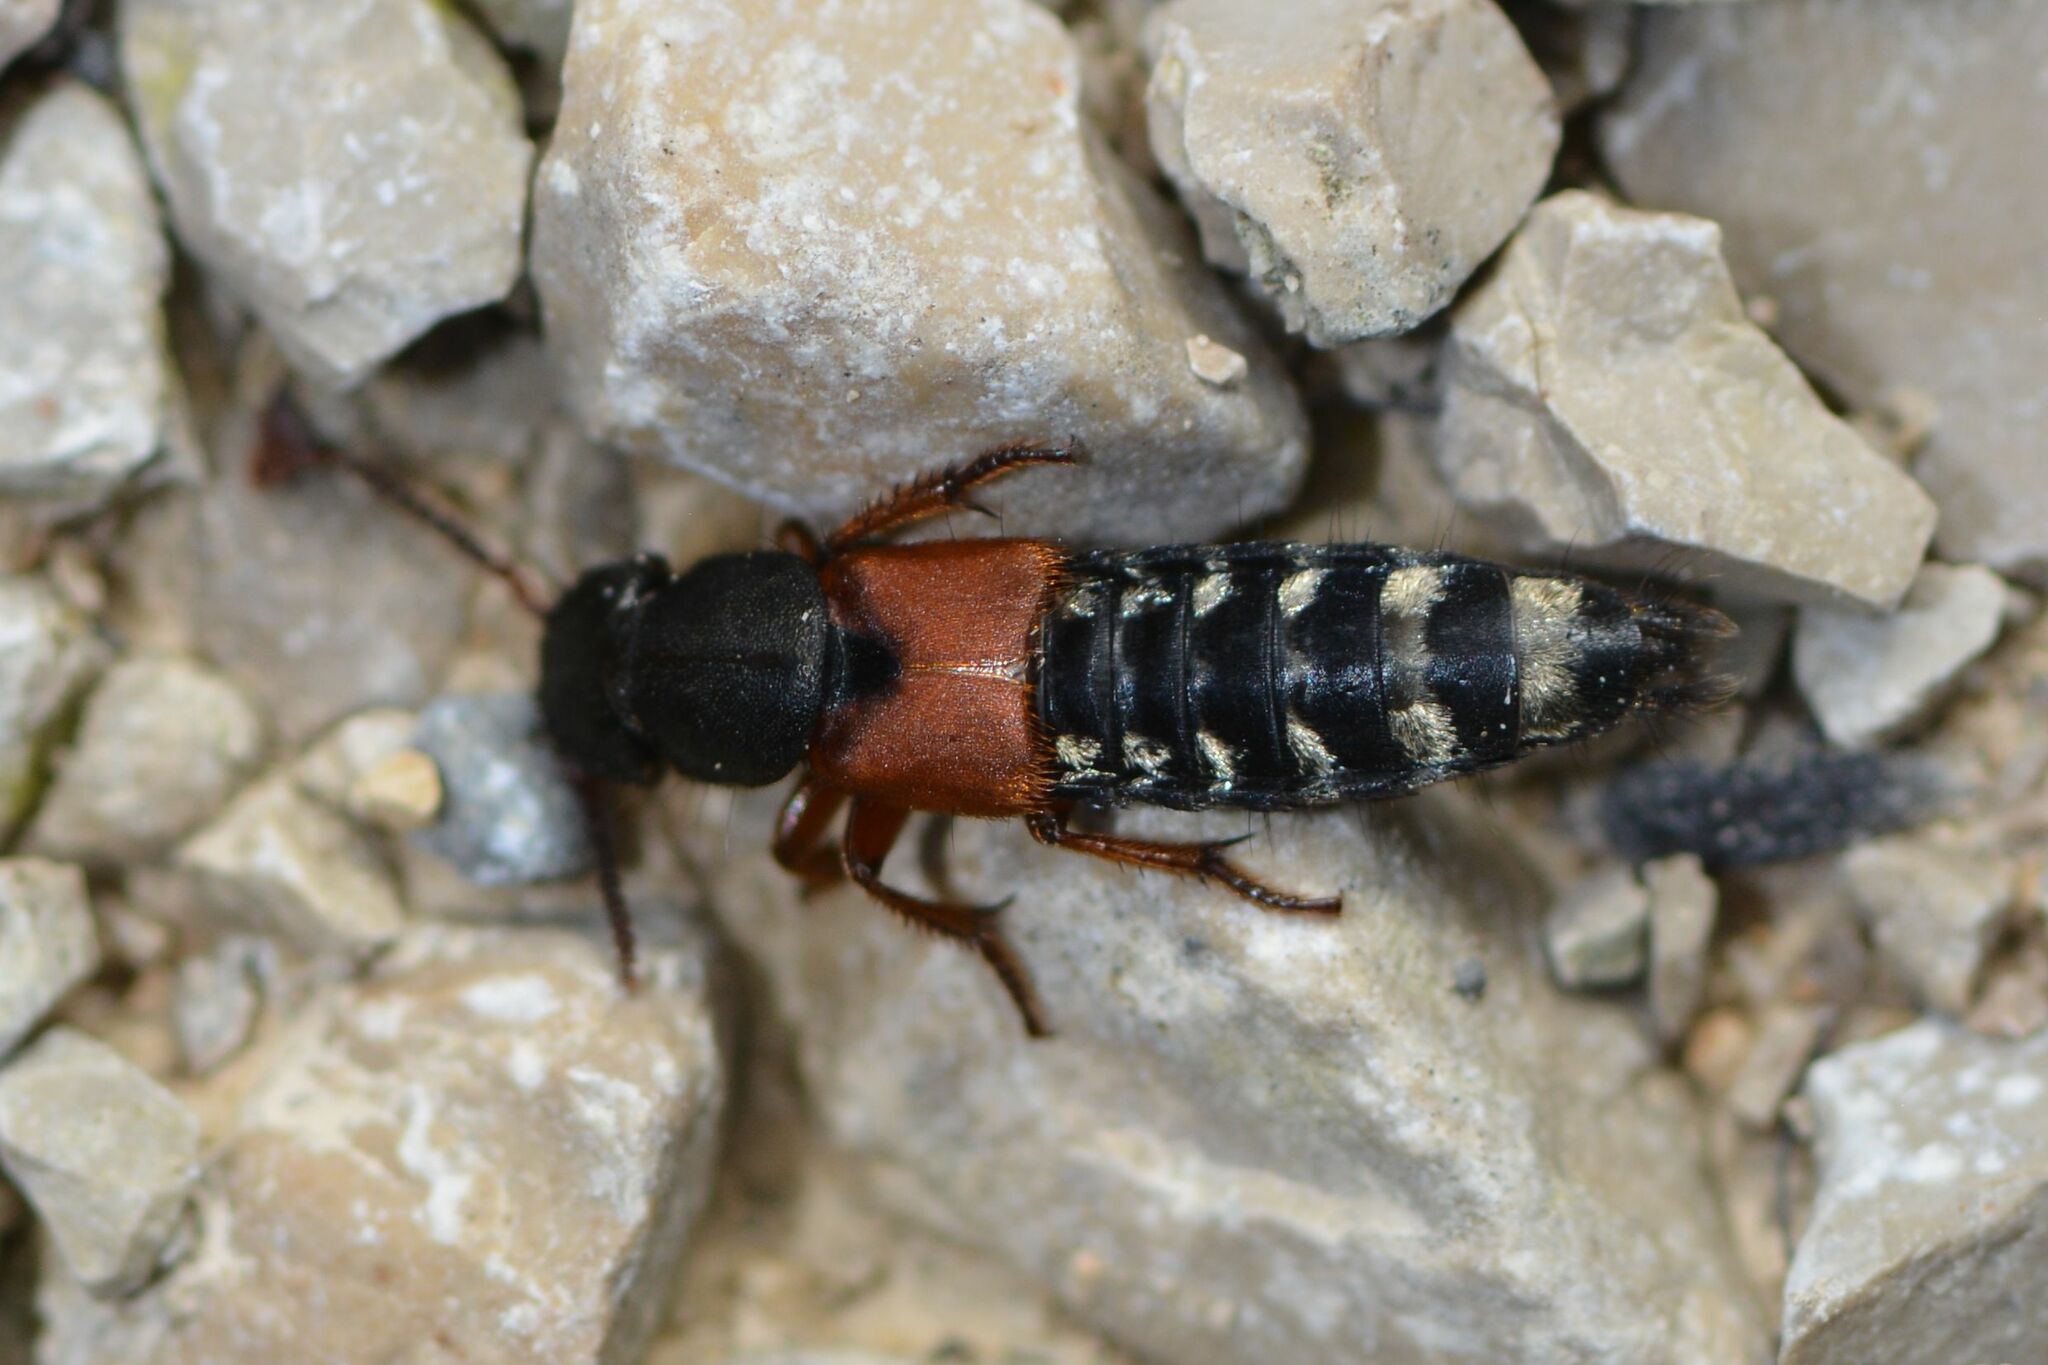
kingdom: Animalia
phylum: Arthropoda
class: Insecta
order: Coleoptera
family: Staphylinidae
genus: Platydracus
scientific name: Platydracus stercorarius
